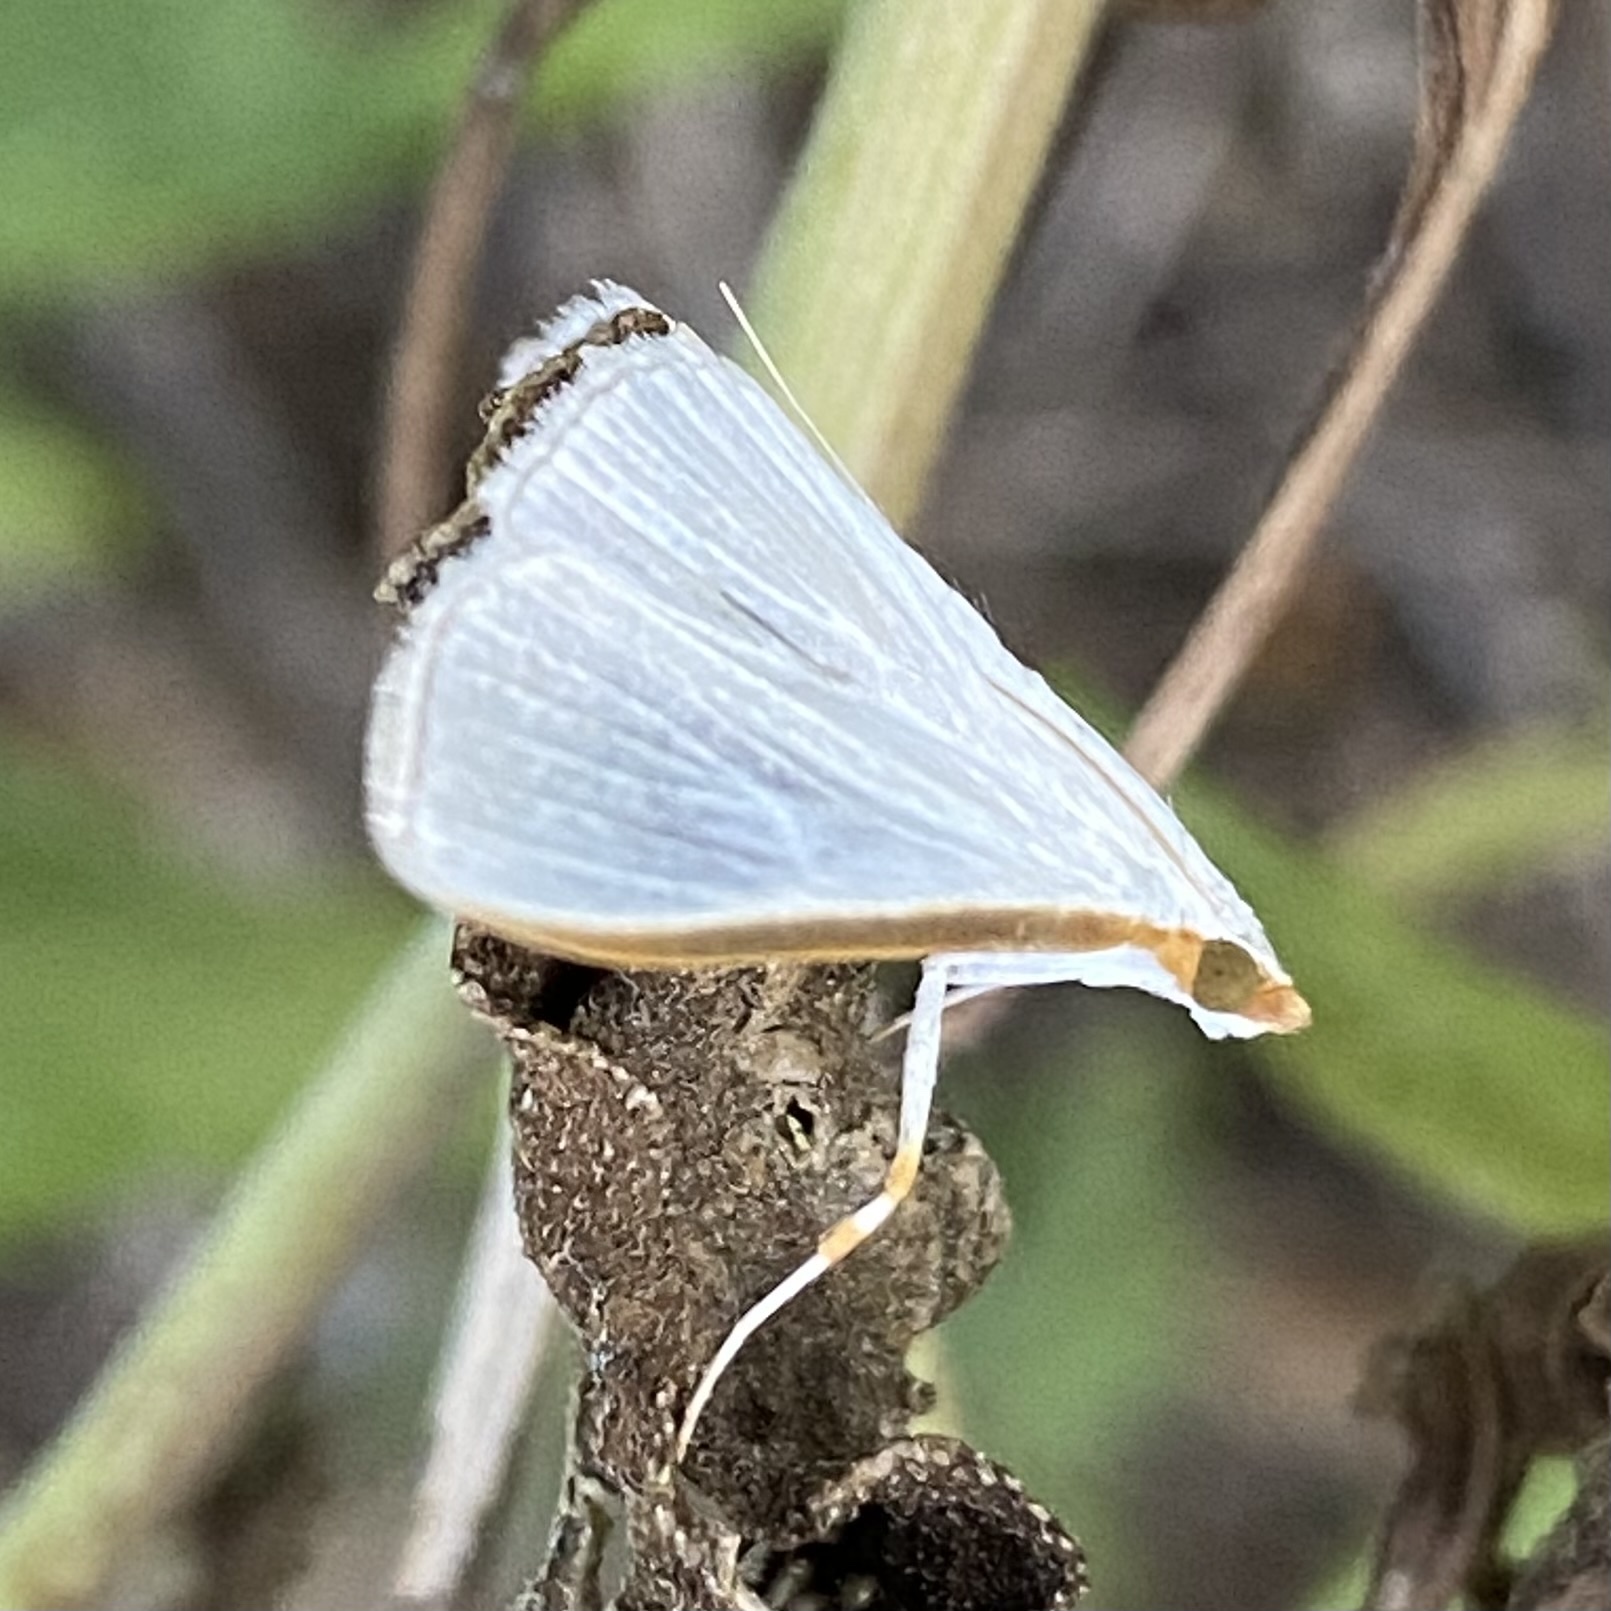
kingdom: Animalia
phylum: Arthropoda
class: Insecta
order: Lepidoptera
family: Crambidae
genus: Diaphania
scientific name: Diaphania costata
